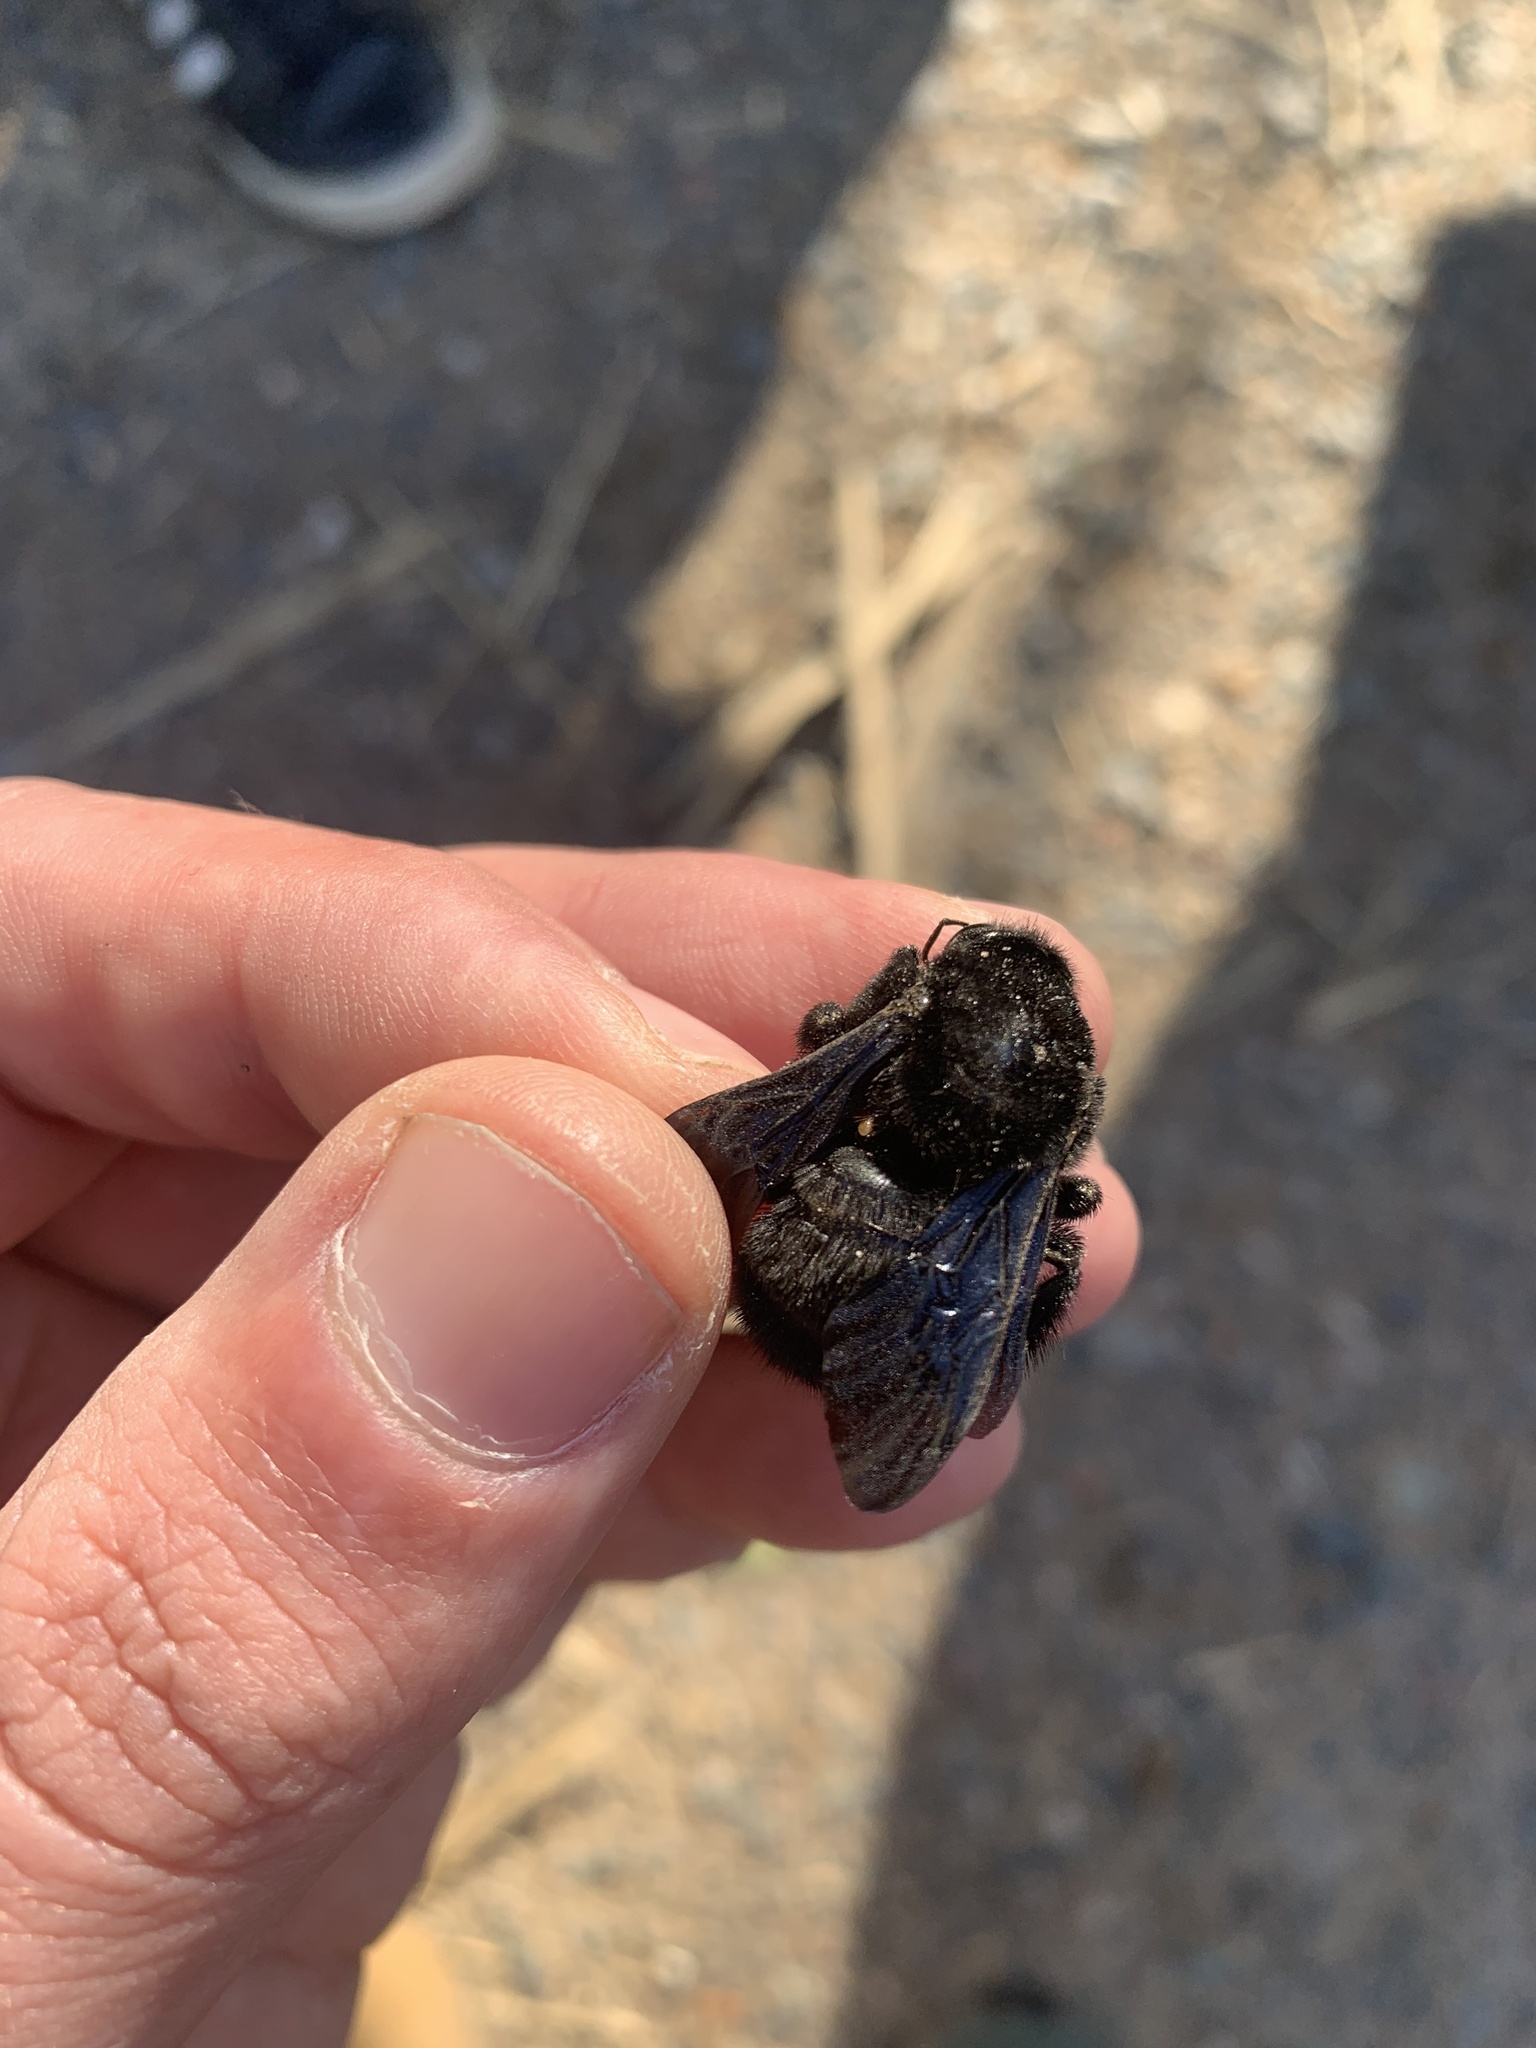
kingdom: Animalia
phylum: Arthropoda
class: Insecta
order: Hymenoptera
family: Apidae
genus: Bombus
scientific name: Bombus pauloensis
